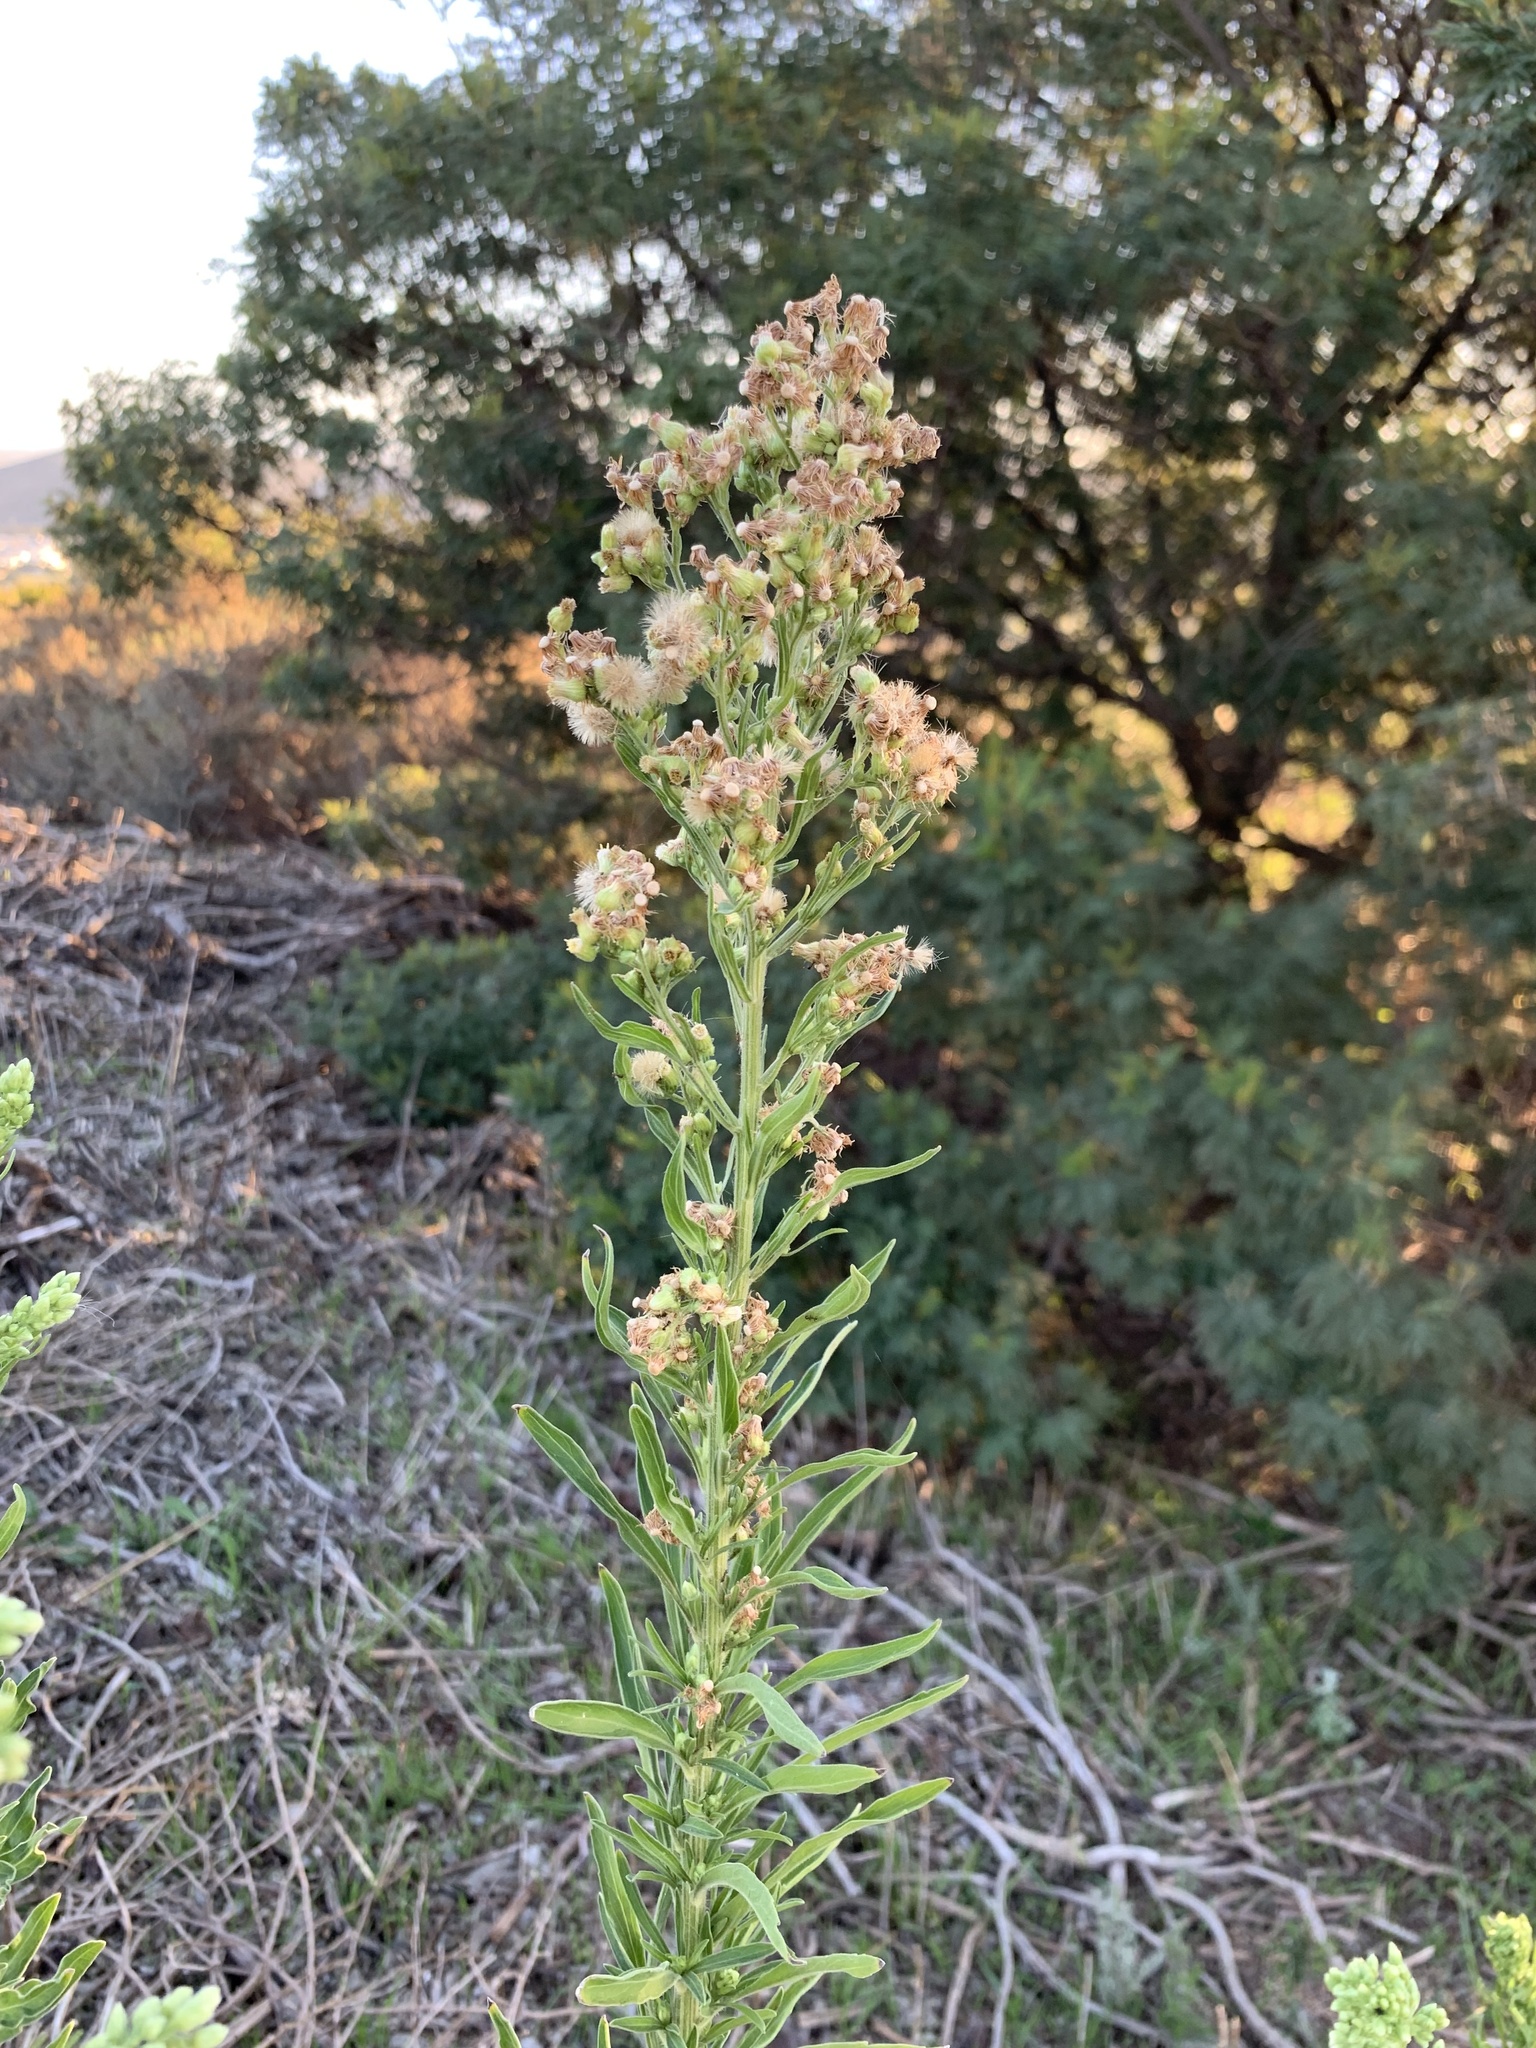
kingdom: Plantae
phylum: Tracheophyta
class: Magnoliopsida
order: Asterales
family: Asteraceae
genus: Erigeron
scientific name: Erigeron sumatrensis
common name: Daisy
